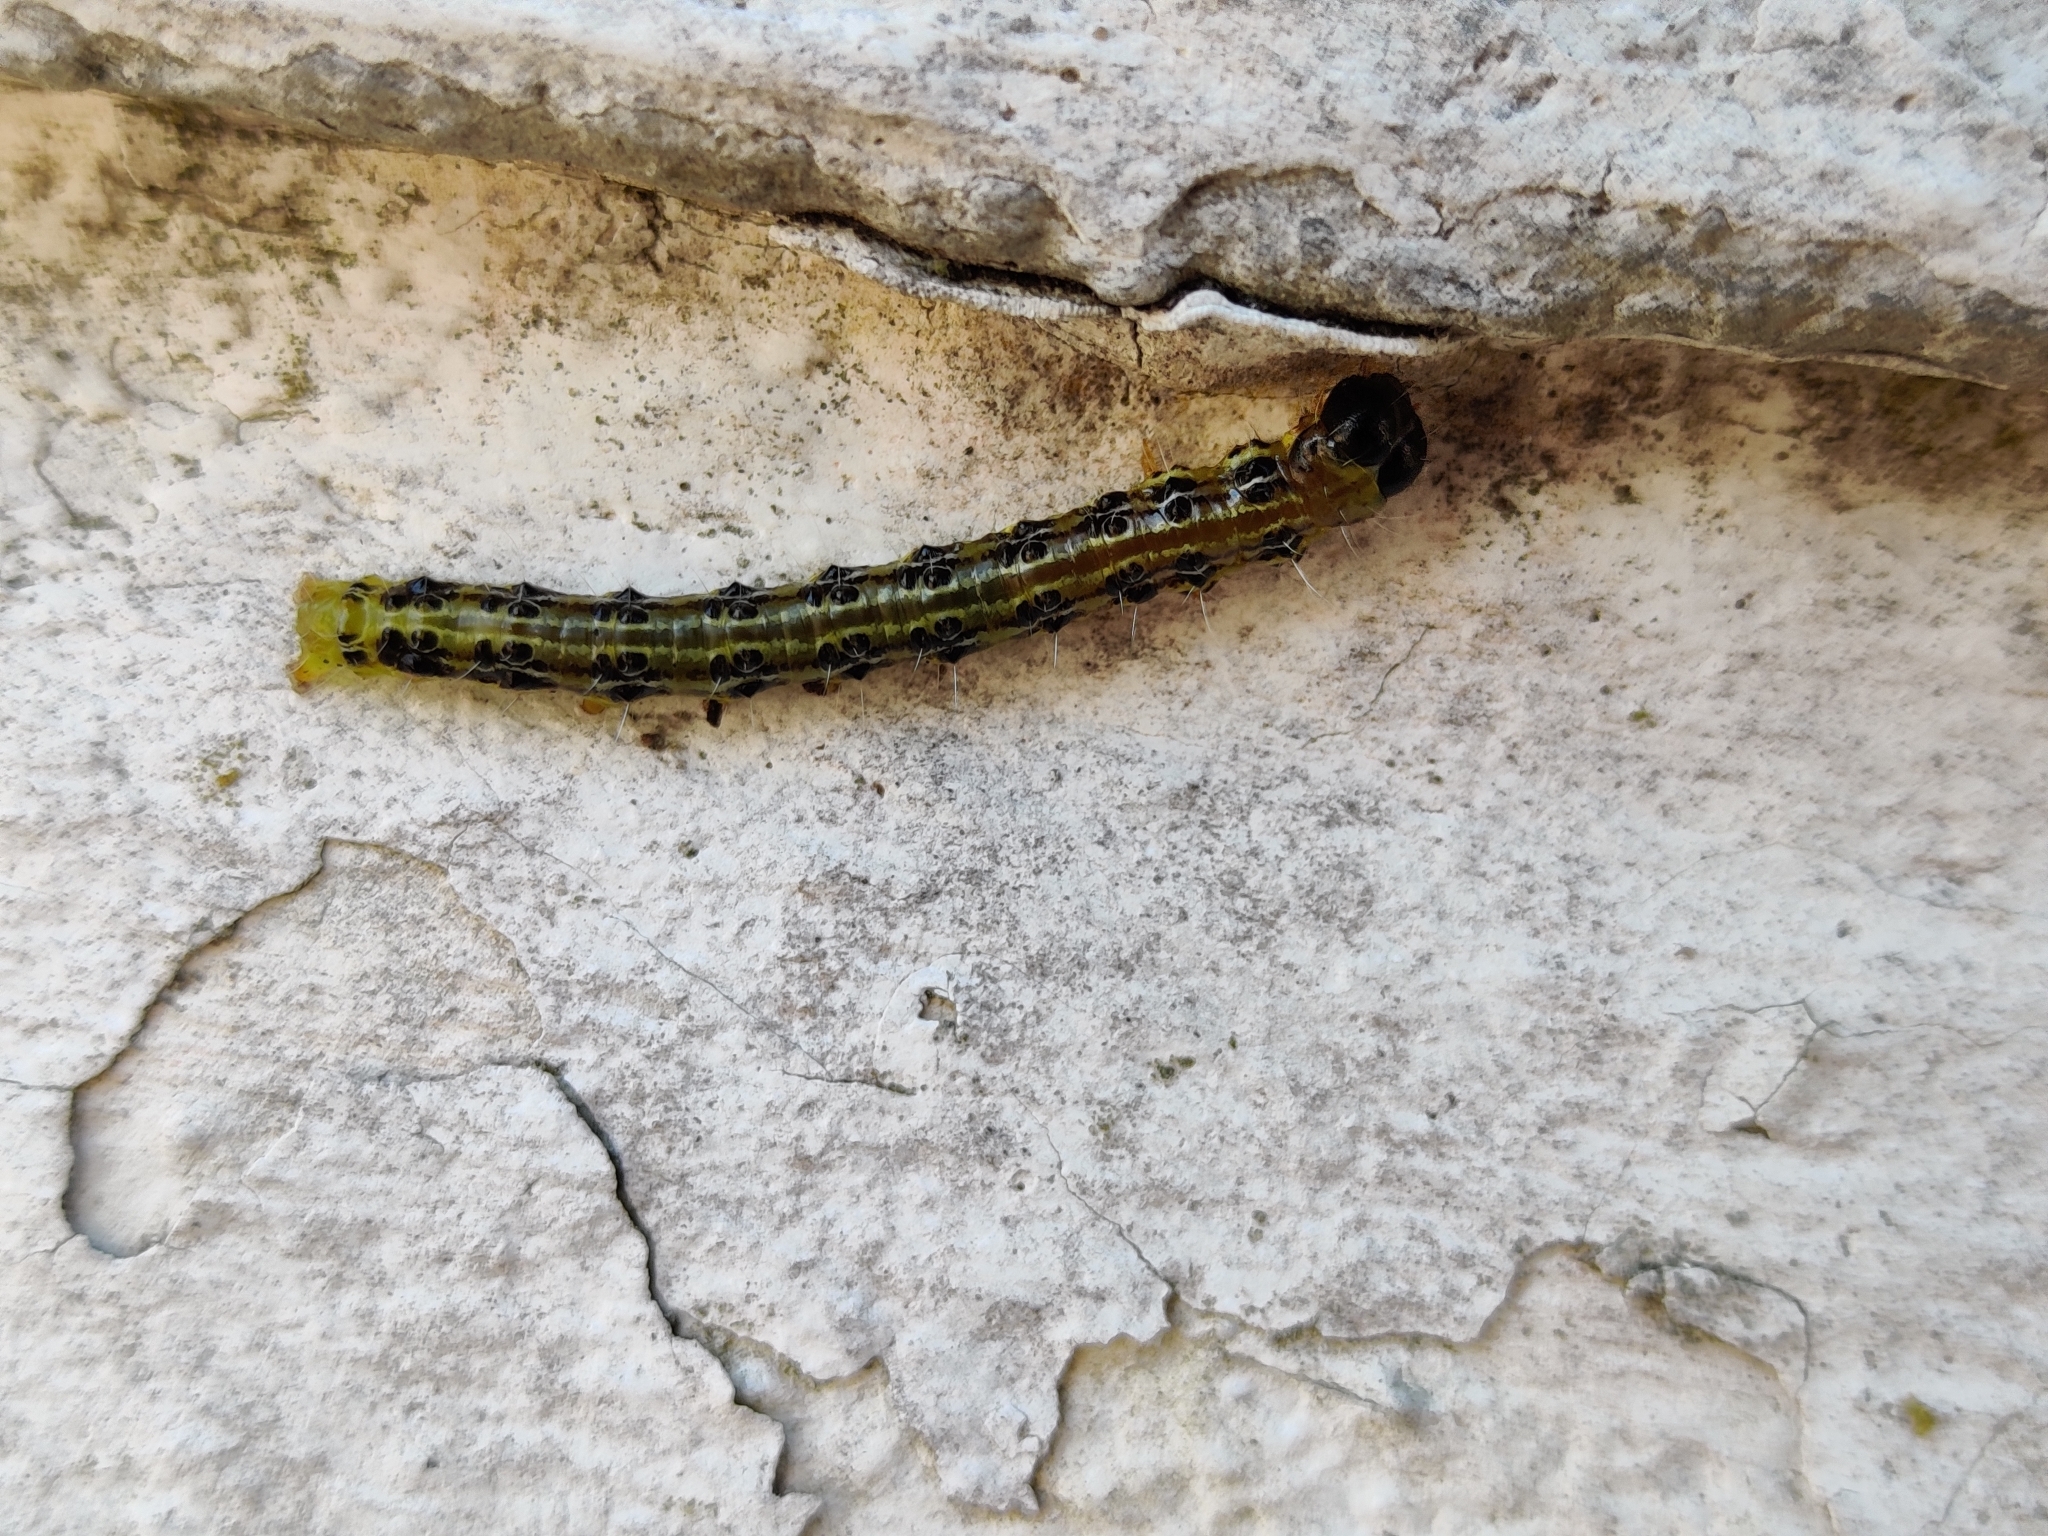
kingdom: Animalia
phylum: Arthropoda
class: Insecta
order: Lepidoptera
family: Crambidae
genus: Cydalima
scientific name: Cydalima perspectalis
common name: Box tree moth
